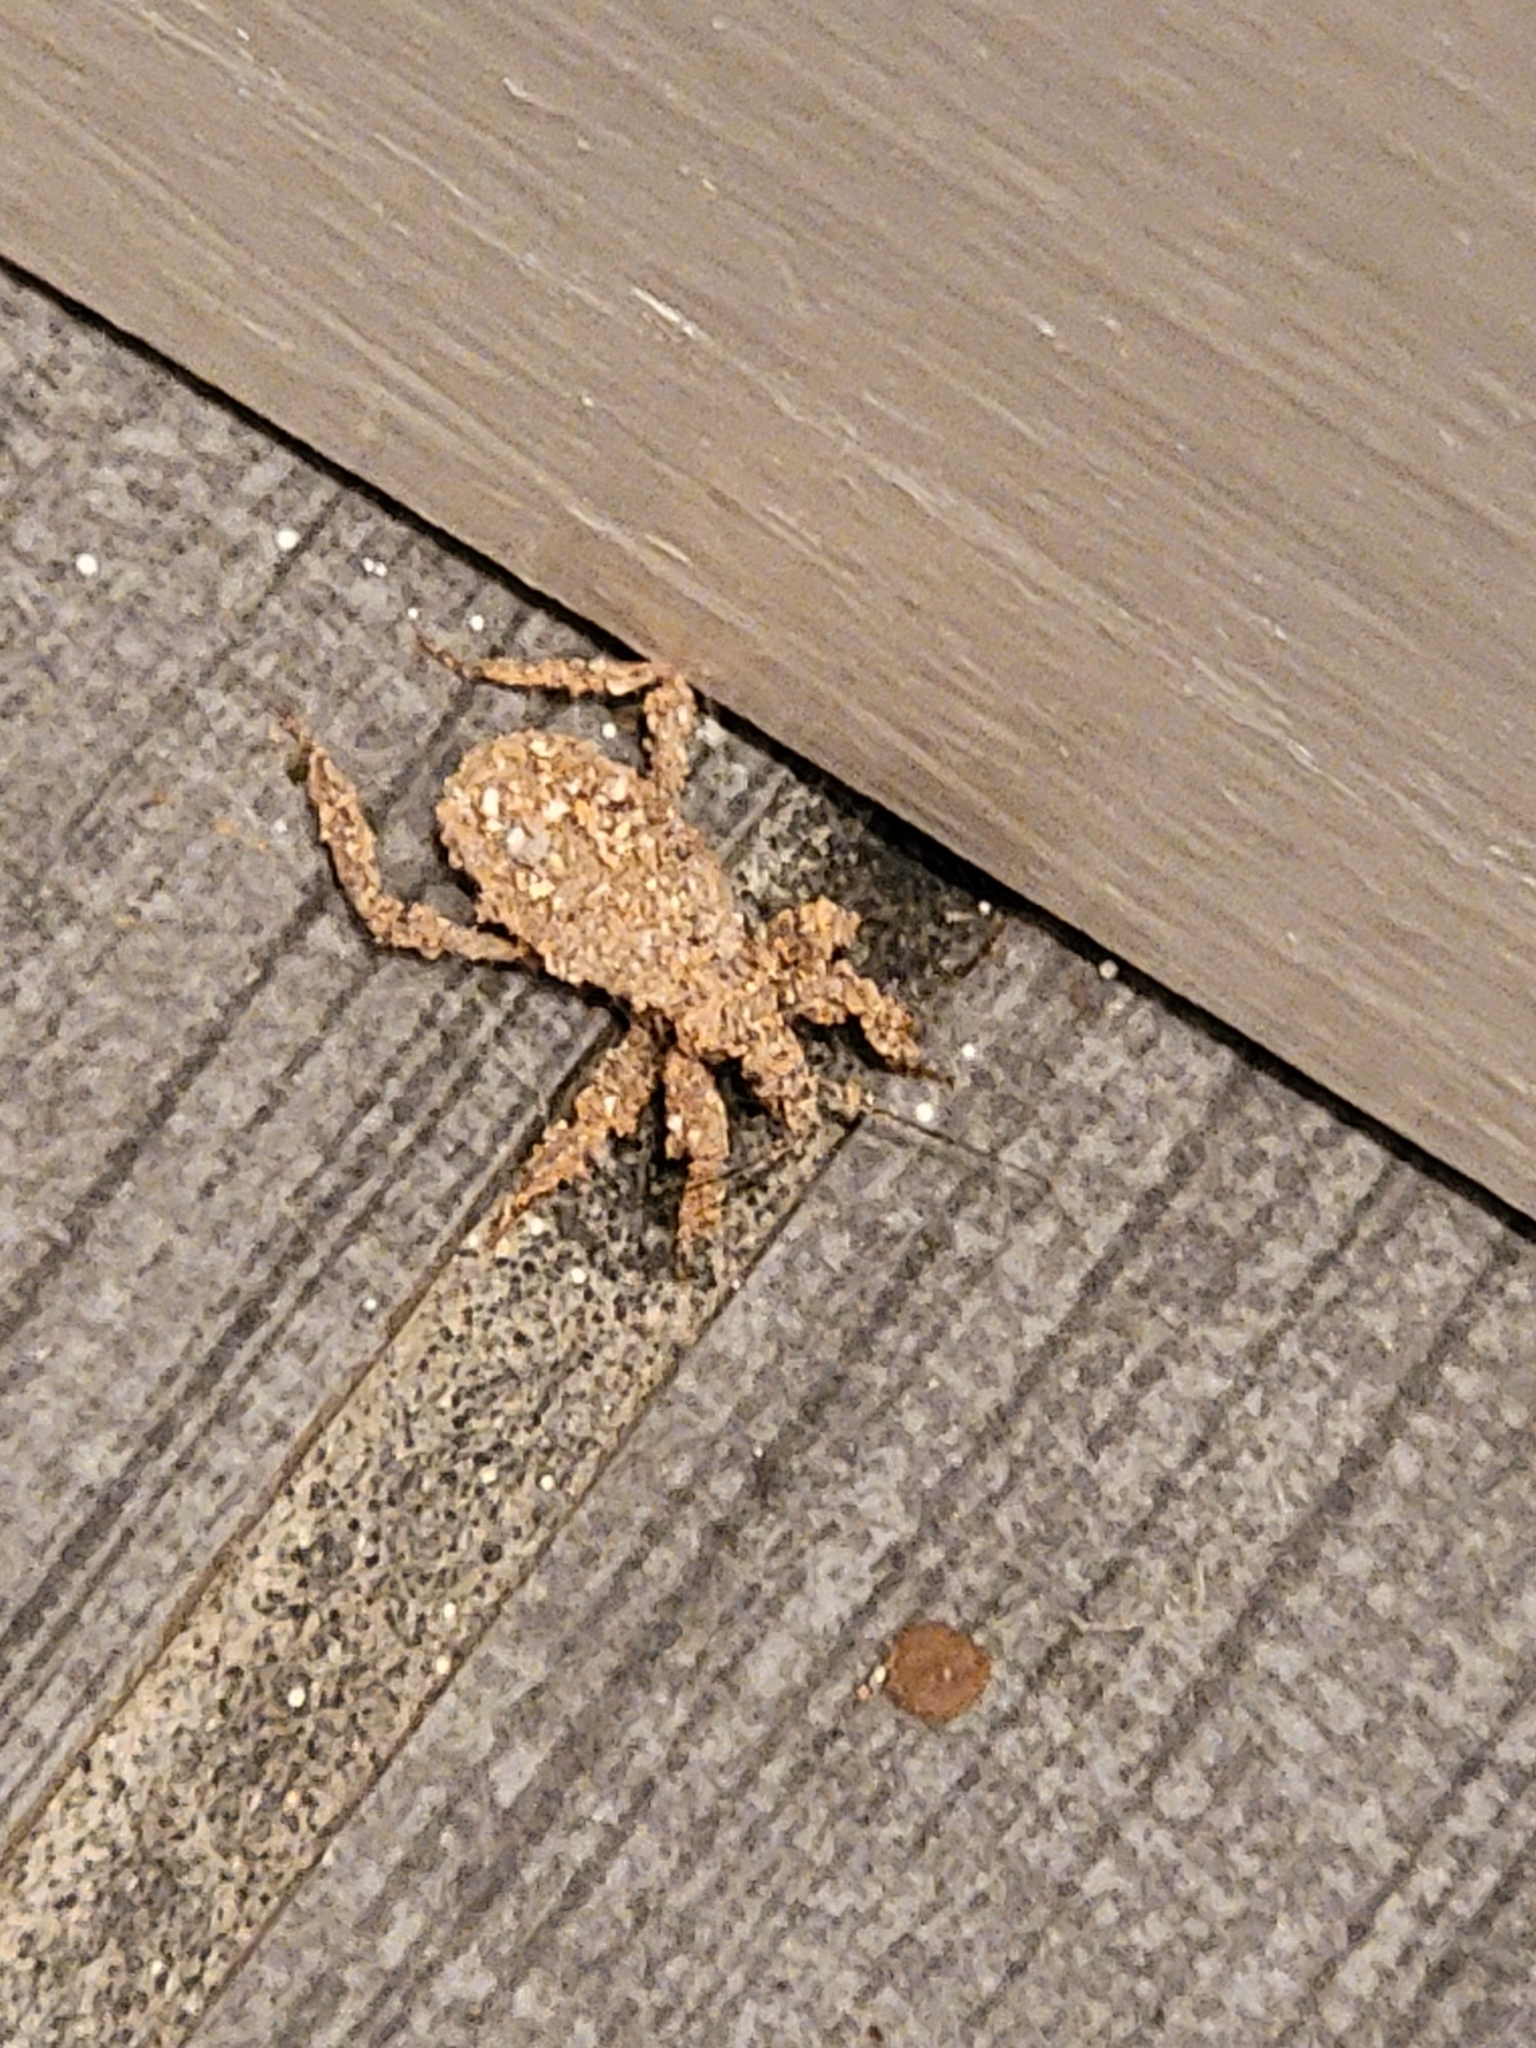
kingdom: Animalia
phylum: Arthropoda
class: Insecta
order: Hemiptera
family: Reduviidae
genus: Reduvius
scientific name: Reduvius personatus
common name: Masked hunter
